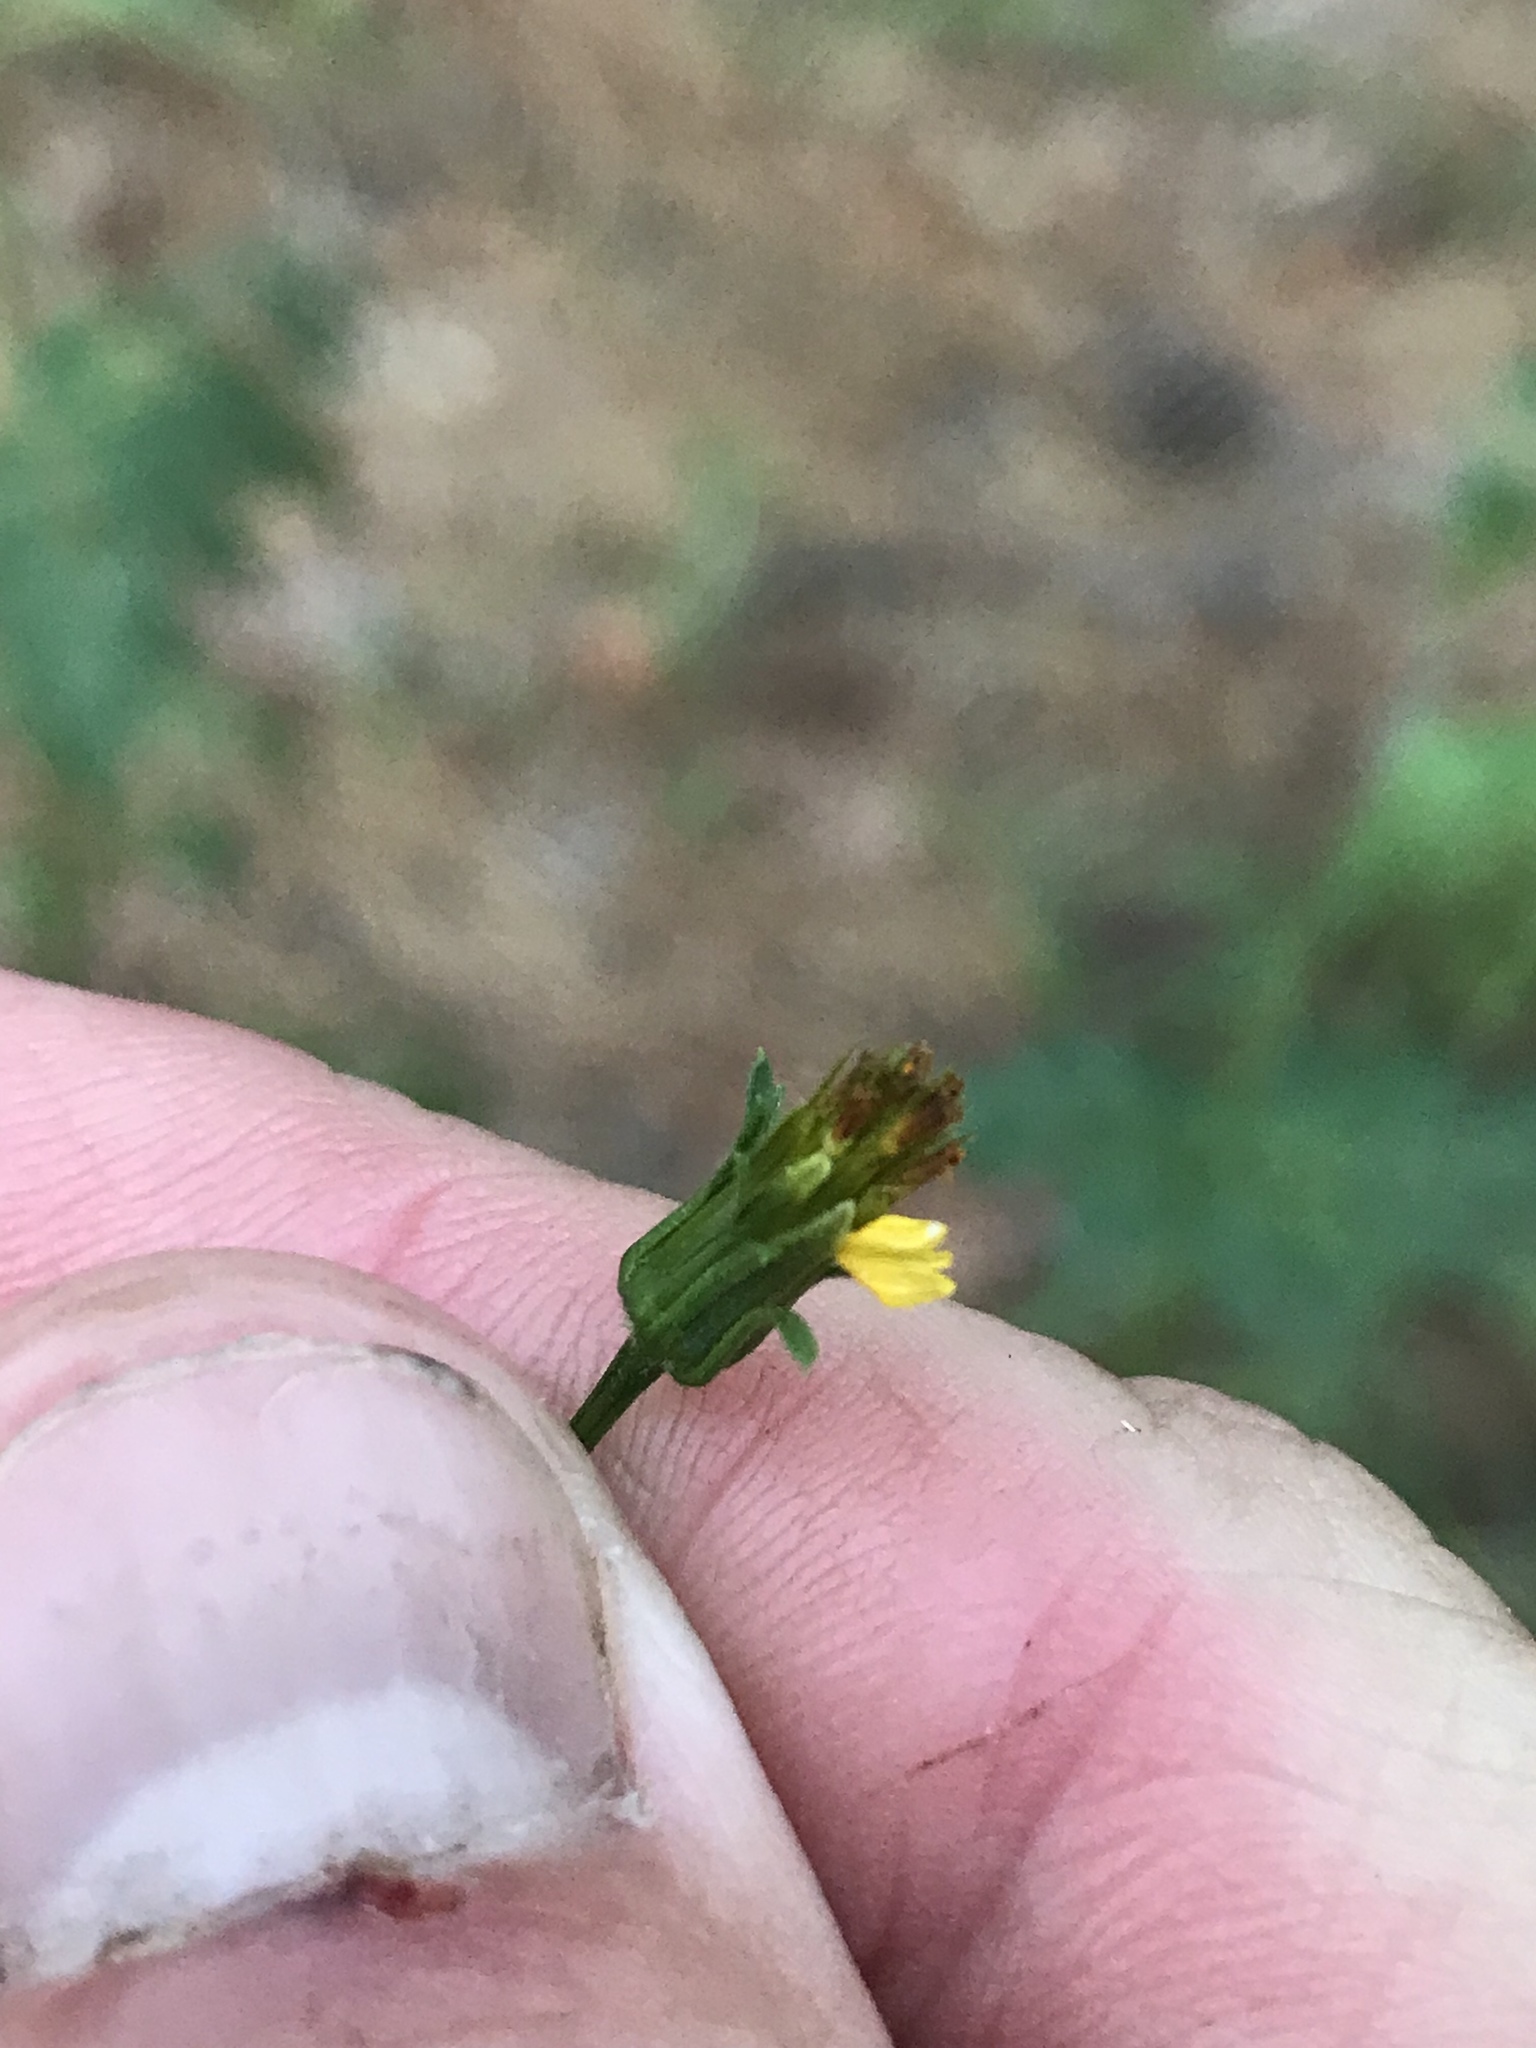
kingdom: Plantae
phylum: Tracheophyta
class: Magnoliopsida
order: Asterales
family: Asteraceae
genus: Bidens
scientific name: Bidens bipinnata
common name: Spanish-needles
